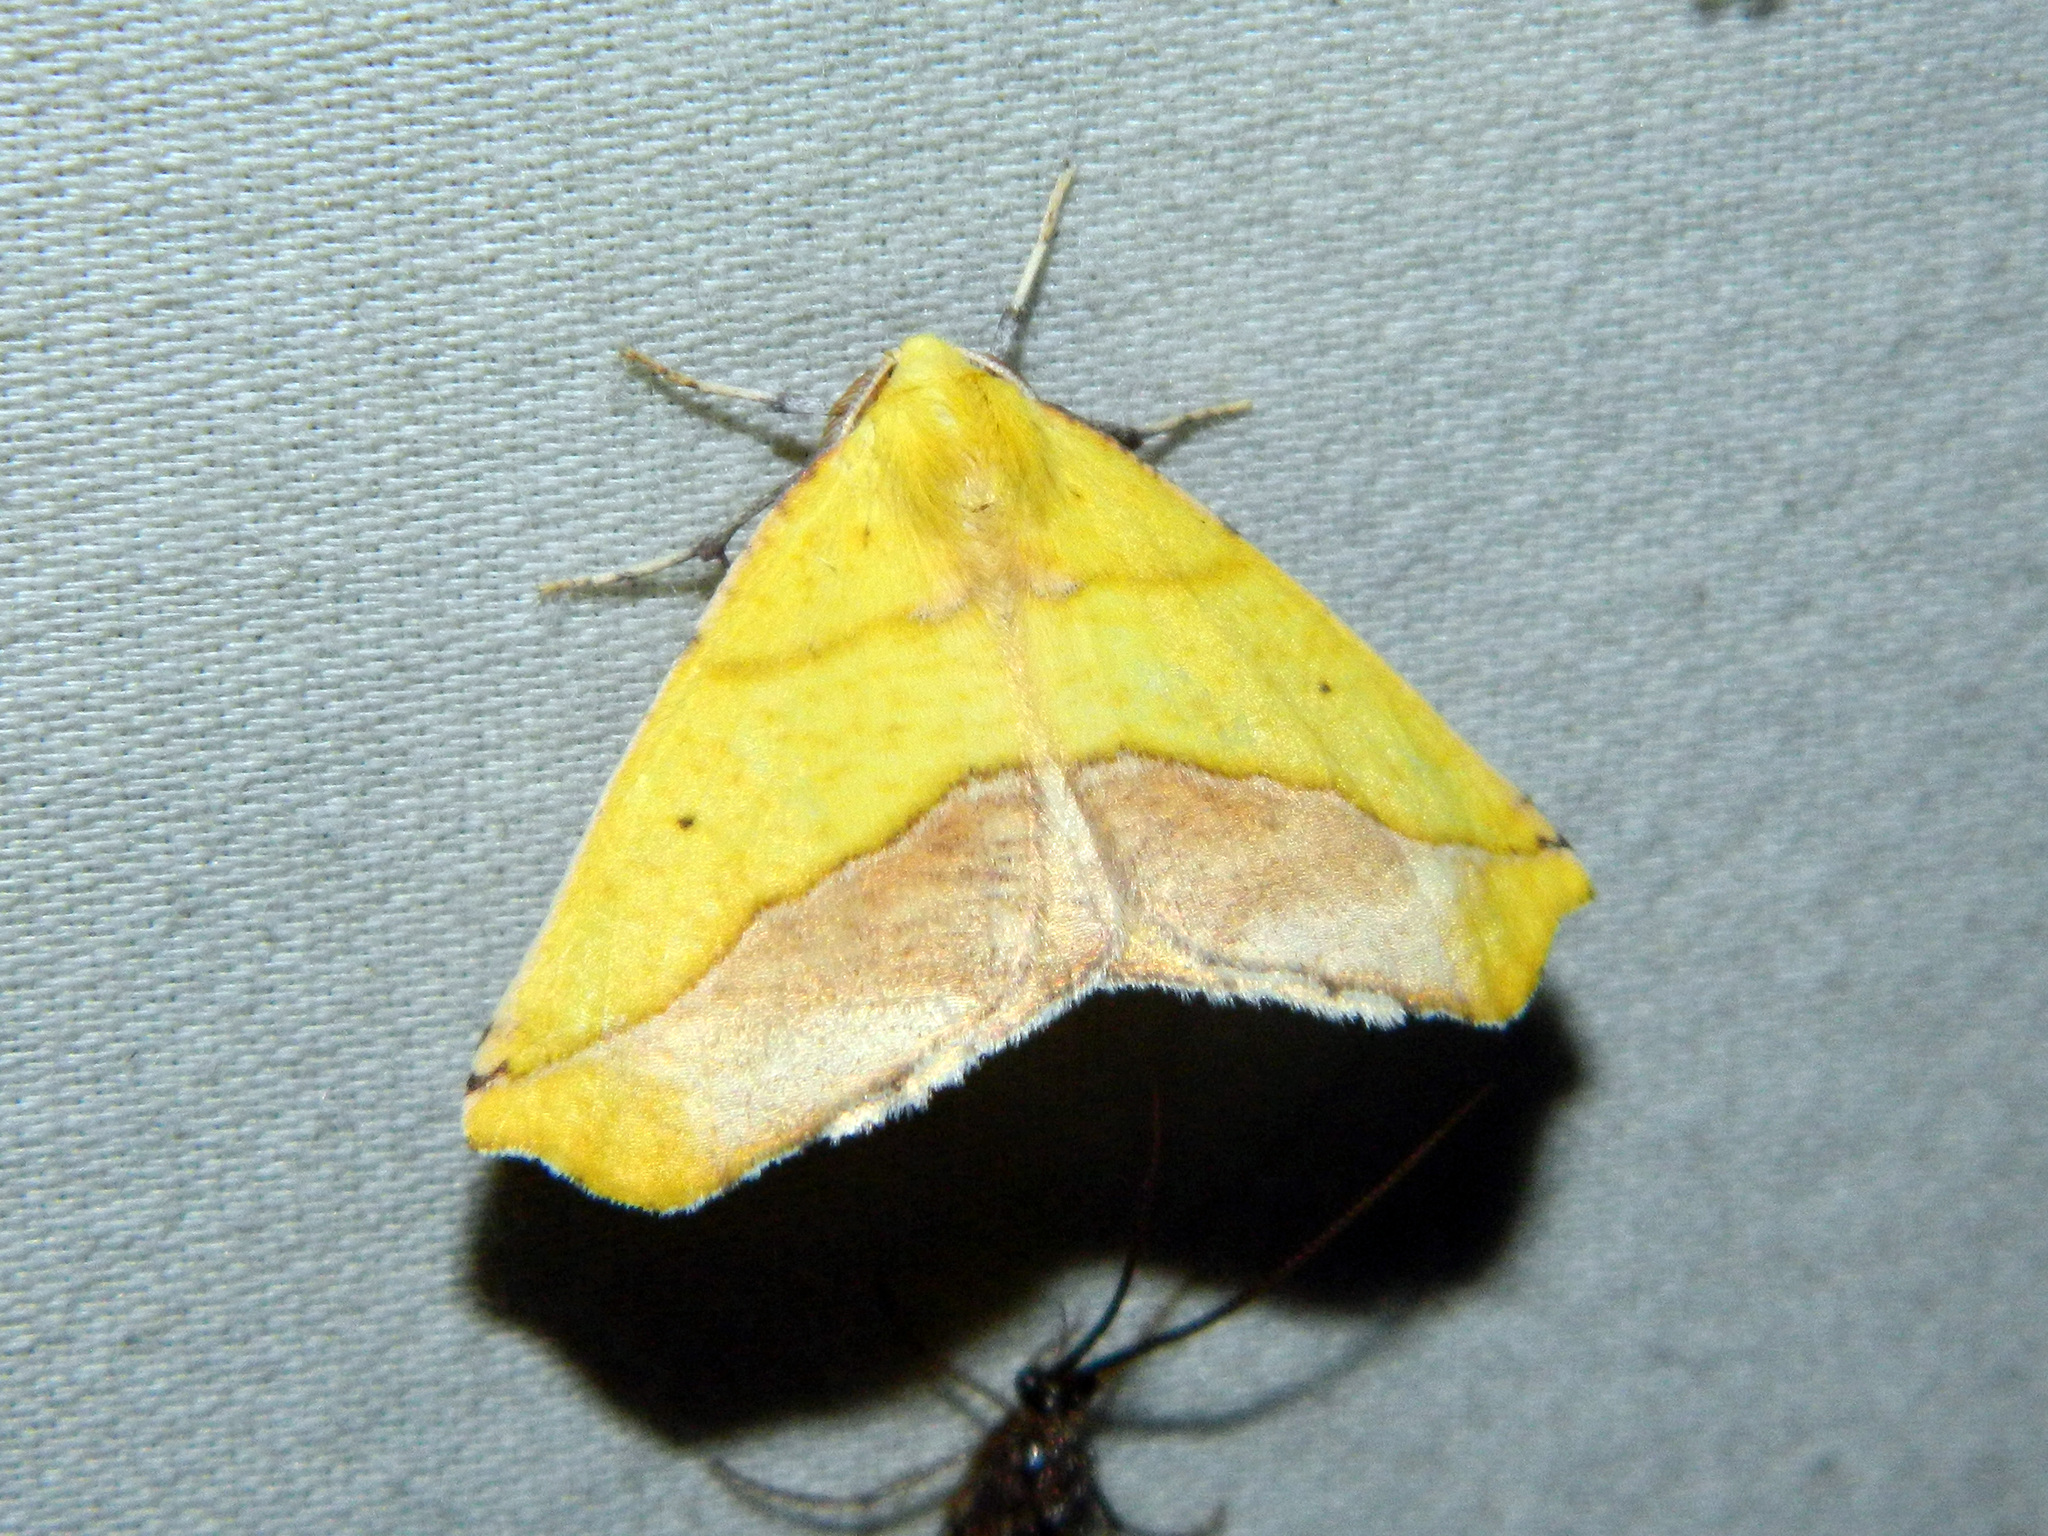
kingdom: Animalia
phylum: Arthropoda
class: Insecta
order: Lepidoptera
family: Geometridae
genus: Sicya
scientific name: Sicya macularia
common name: Sharp-lined yellow
